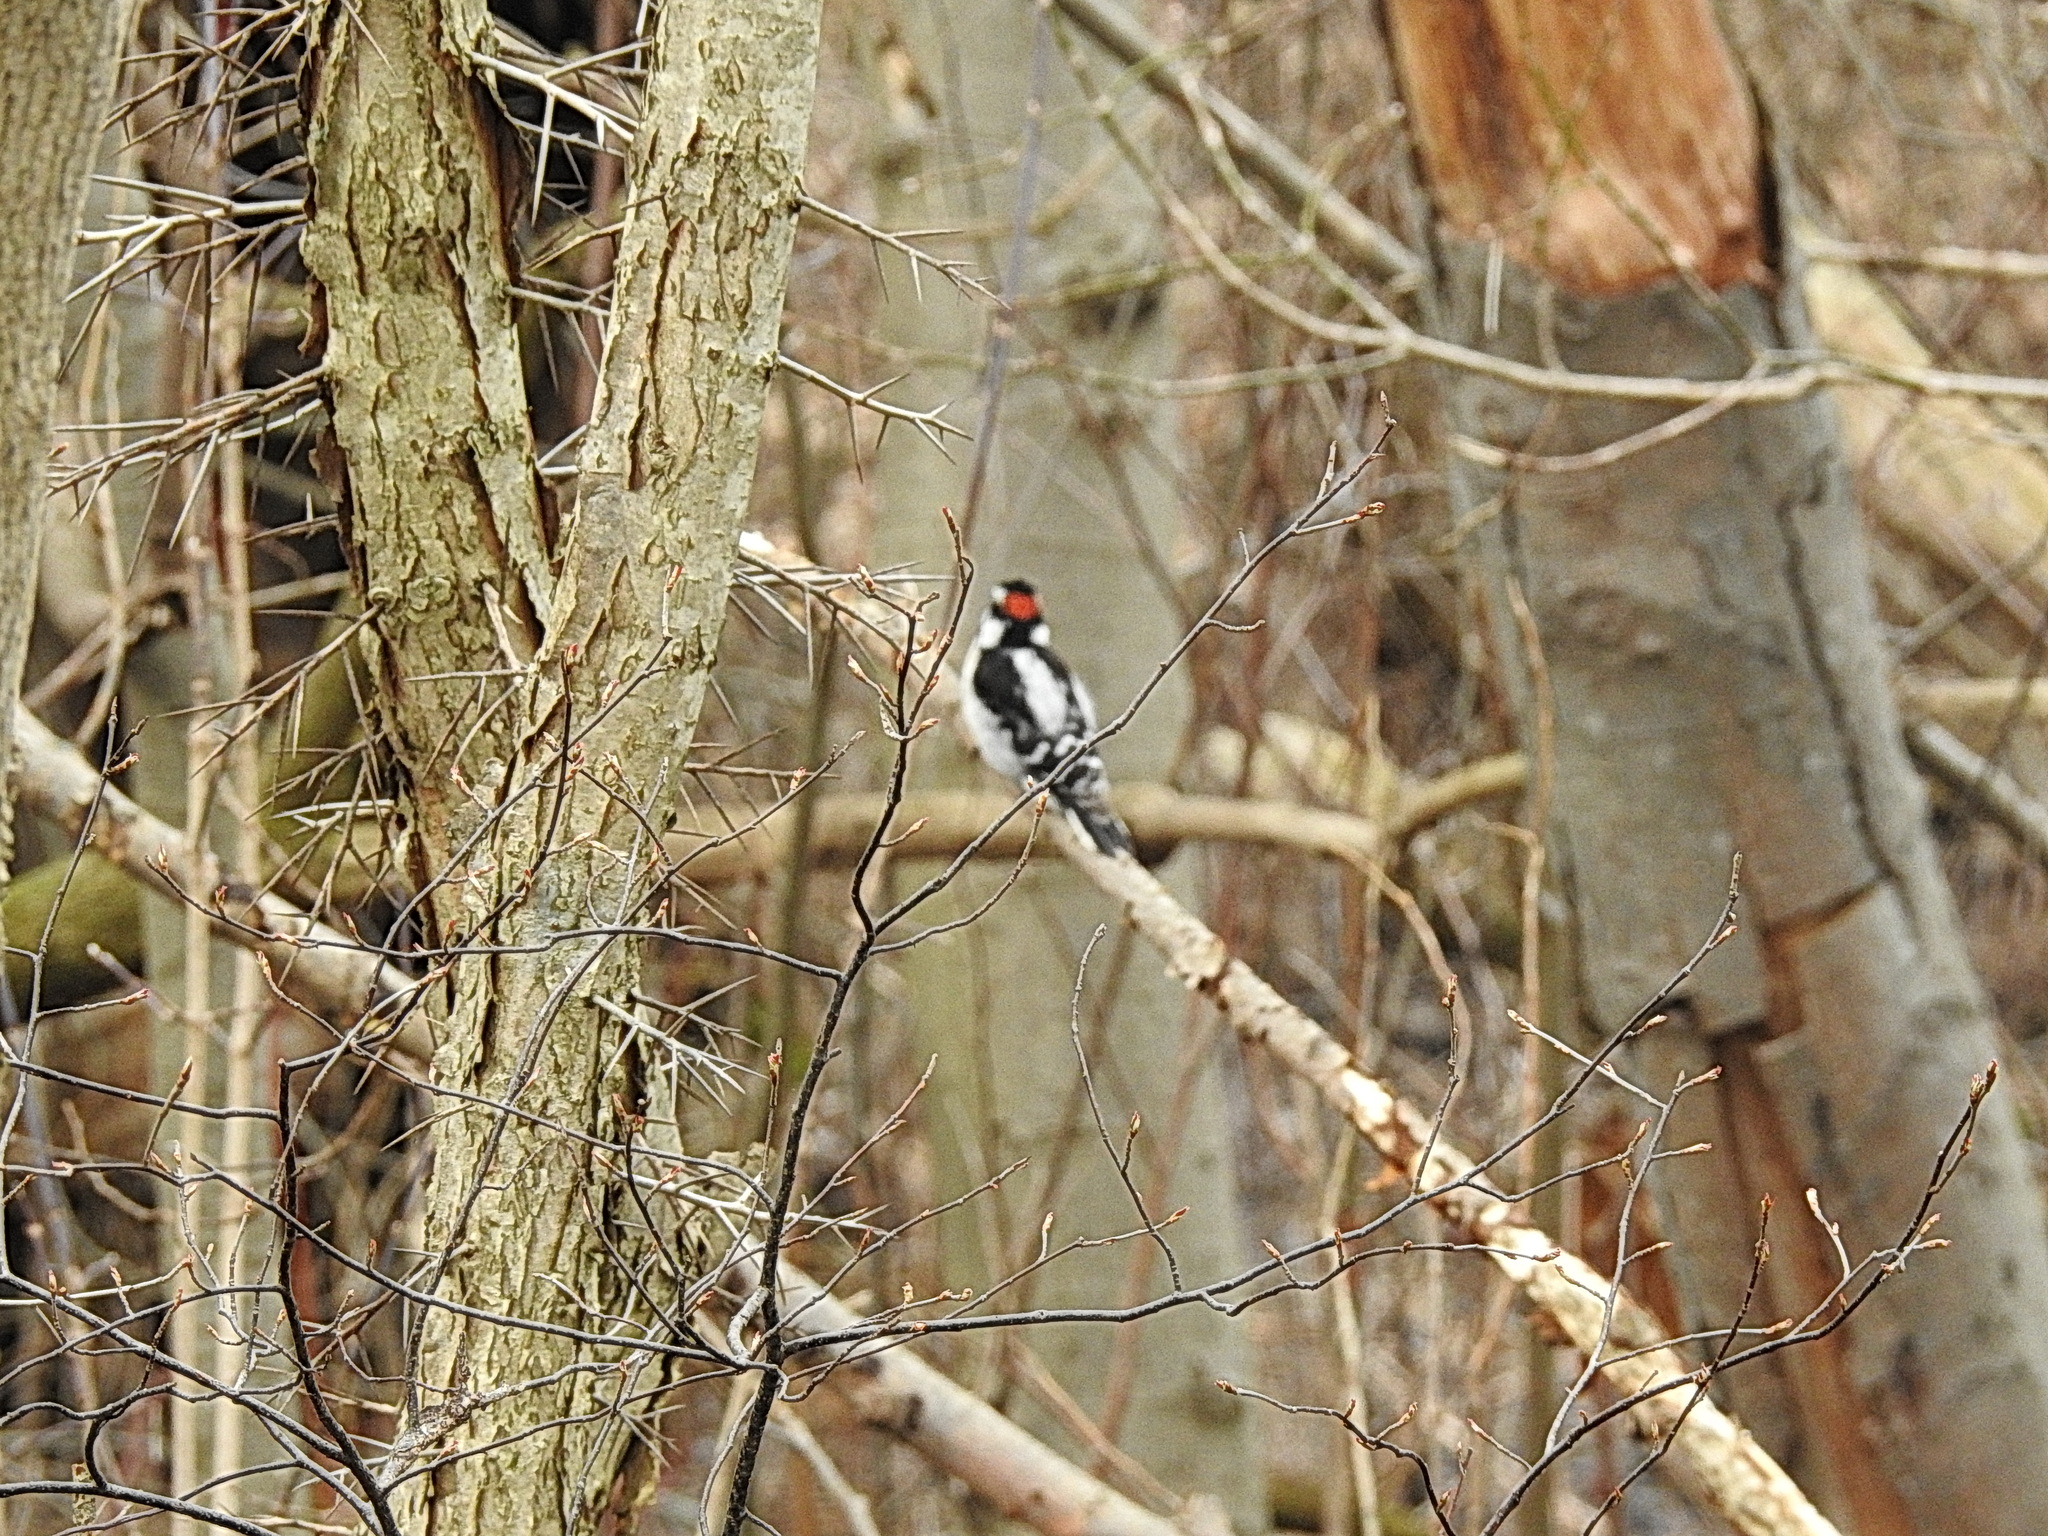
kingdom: Animalia
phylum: Chordata
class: Aves
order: Piciformes
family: Picidae
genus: Dryobates
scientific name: Dryobates pubescens
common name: Downy woodpecker
